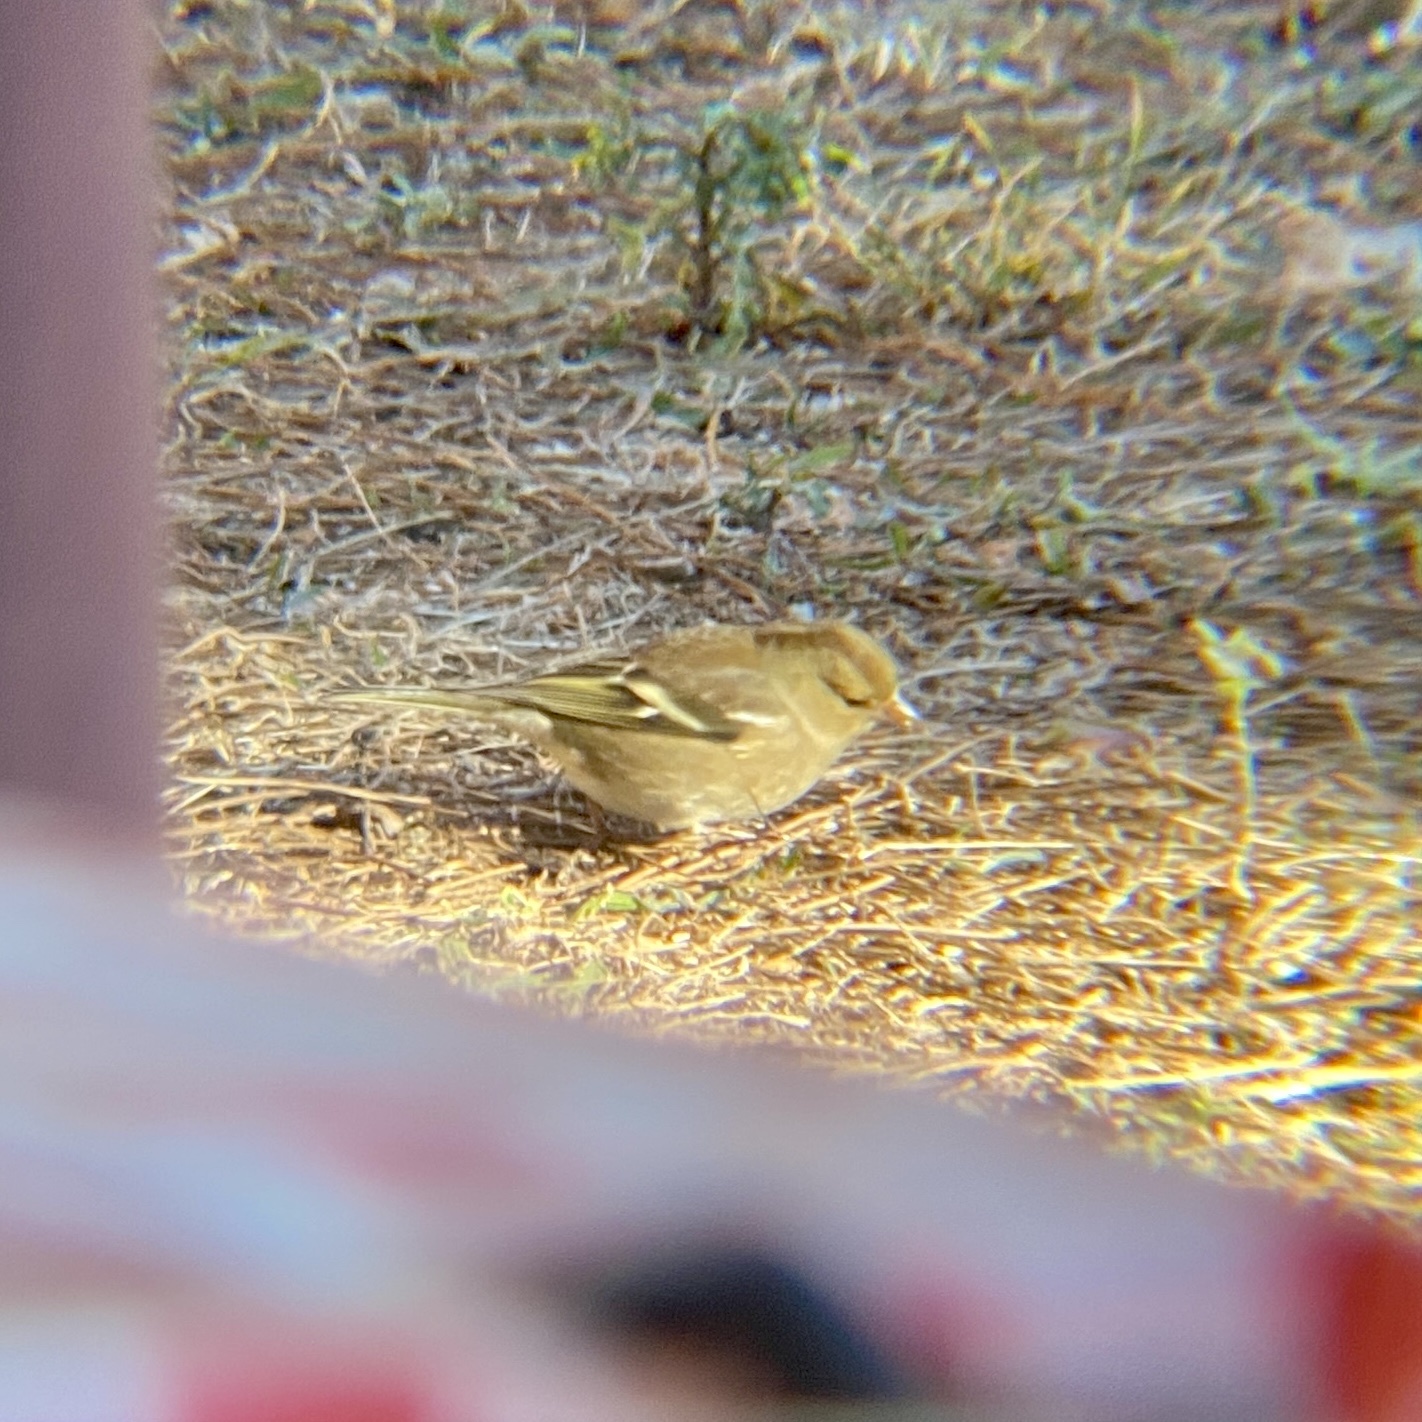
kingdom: Animalia
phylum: Chordata
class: Aves
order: Passeriformes
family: Fringillidae
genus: Fringilla
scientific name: Fringilla coelebs
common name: Common chaffinch
